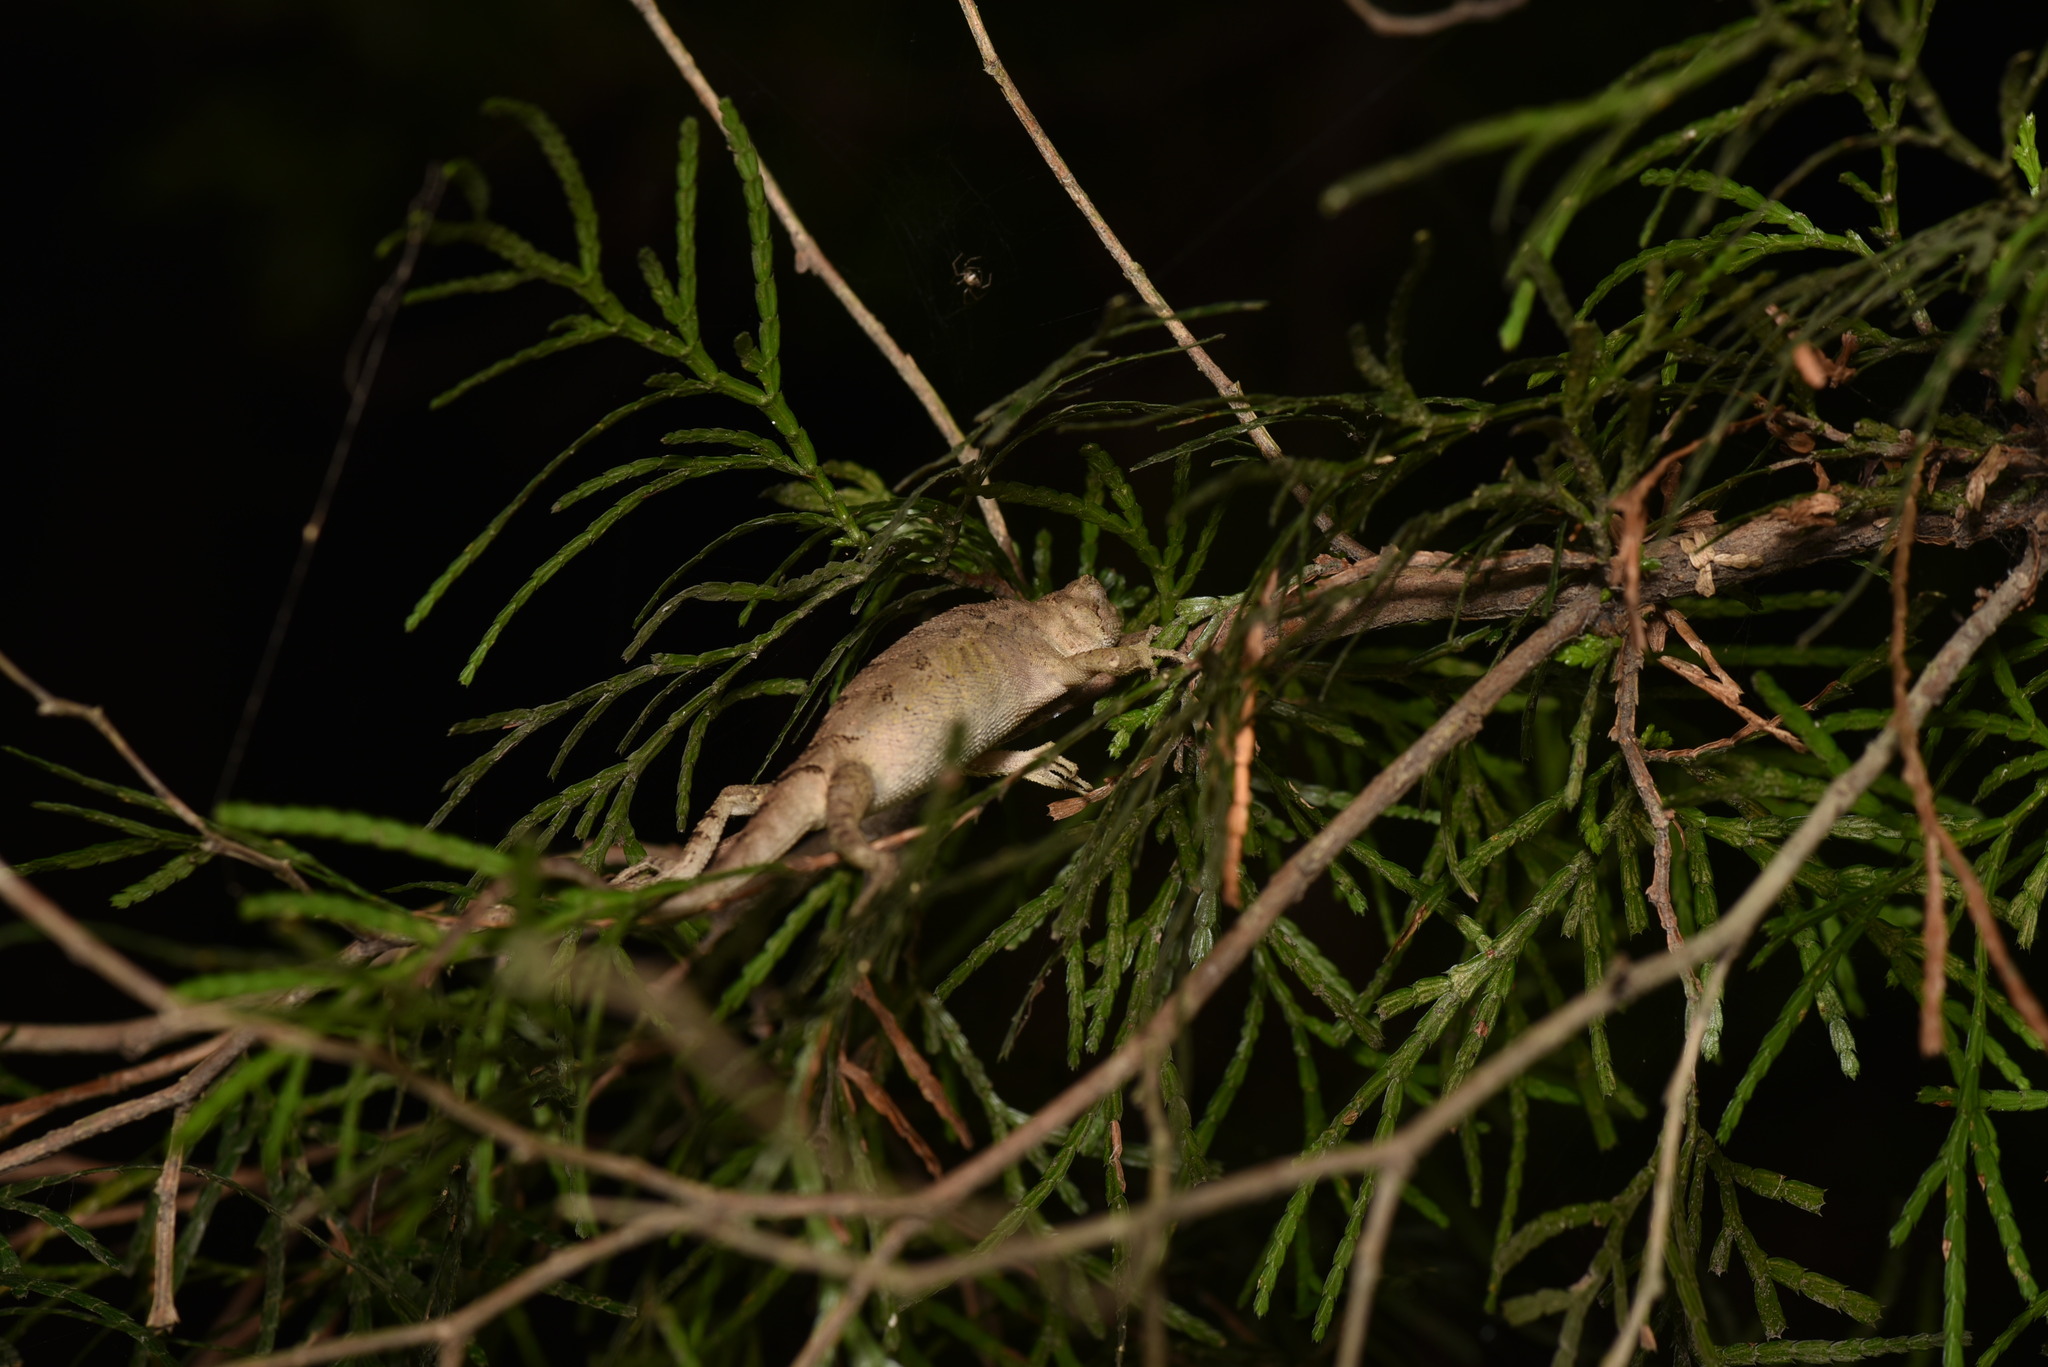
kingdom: Animalia
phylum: Chordata
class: Squamata
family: Agamidae
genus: Diploderma
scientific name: Diploderma swinhonis
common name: Taiwan japalure
